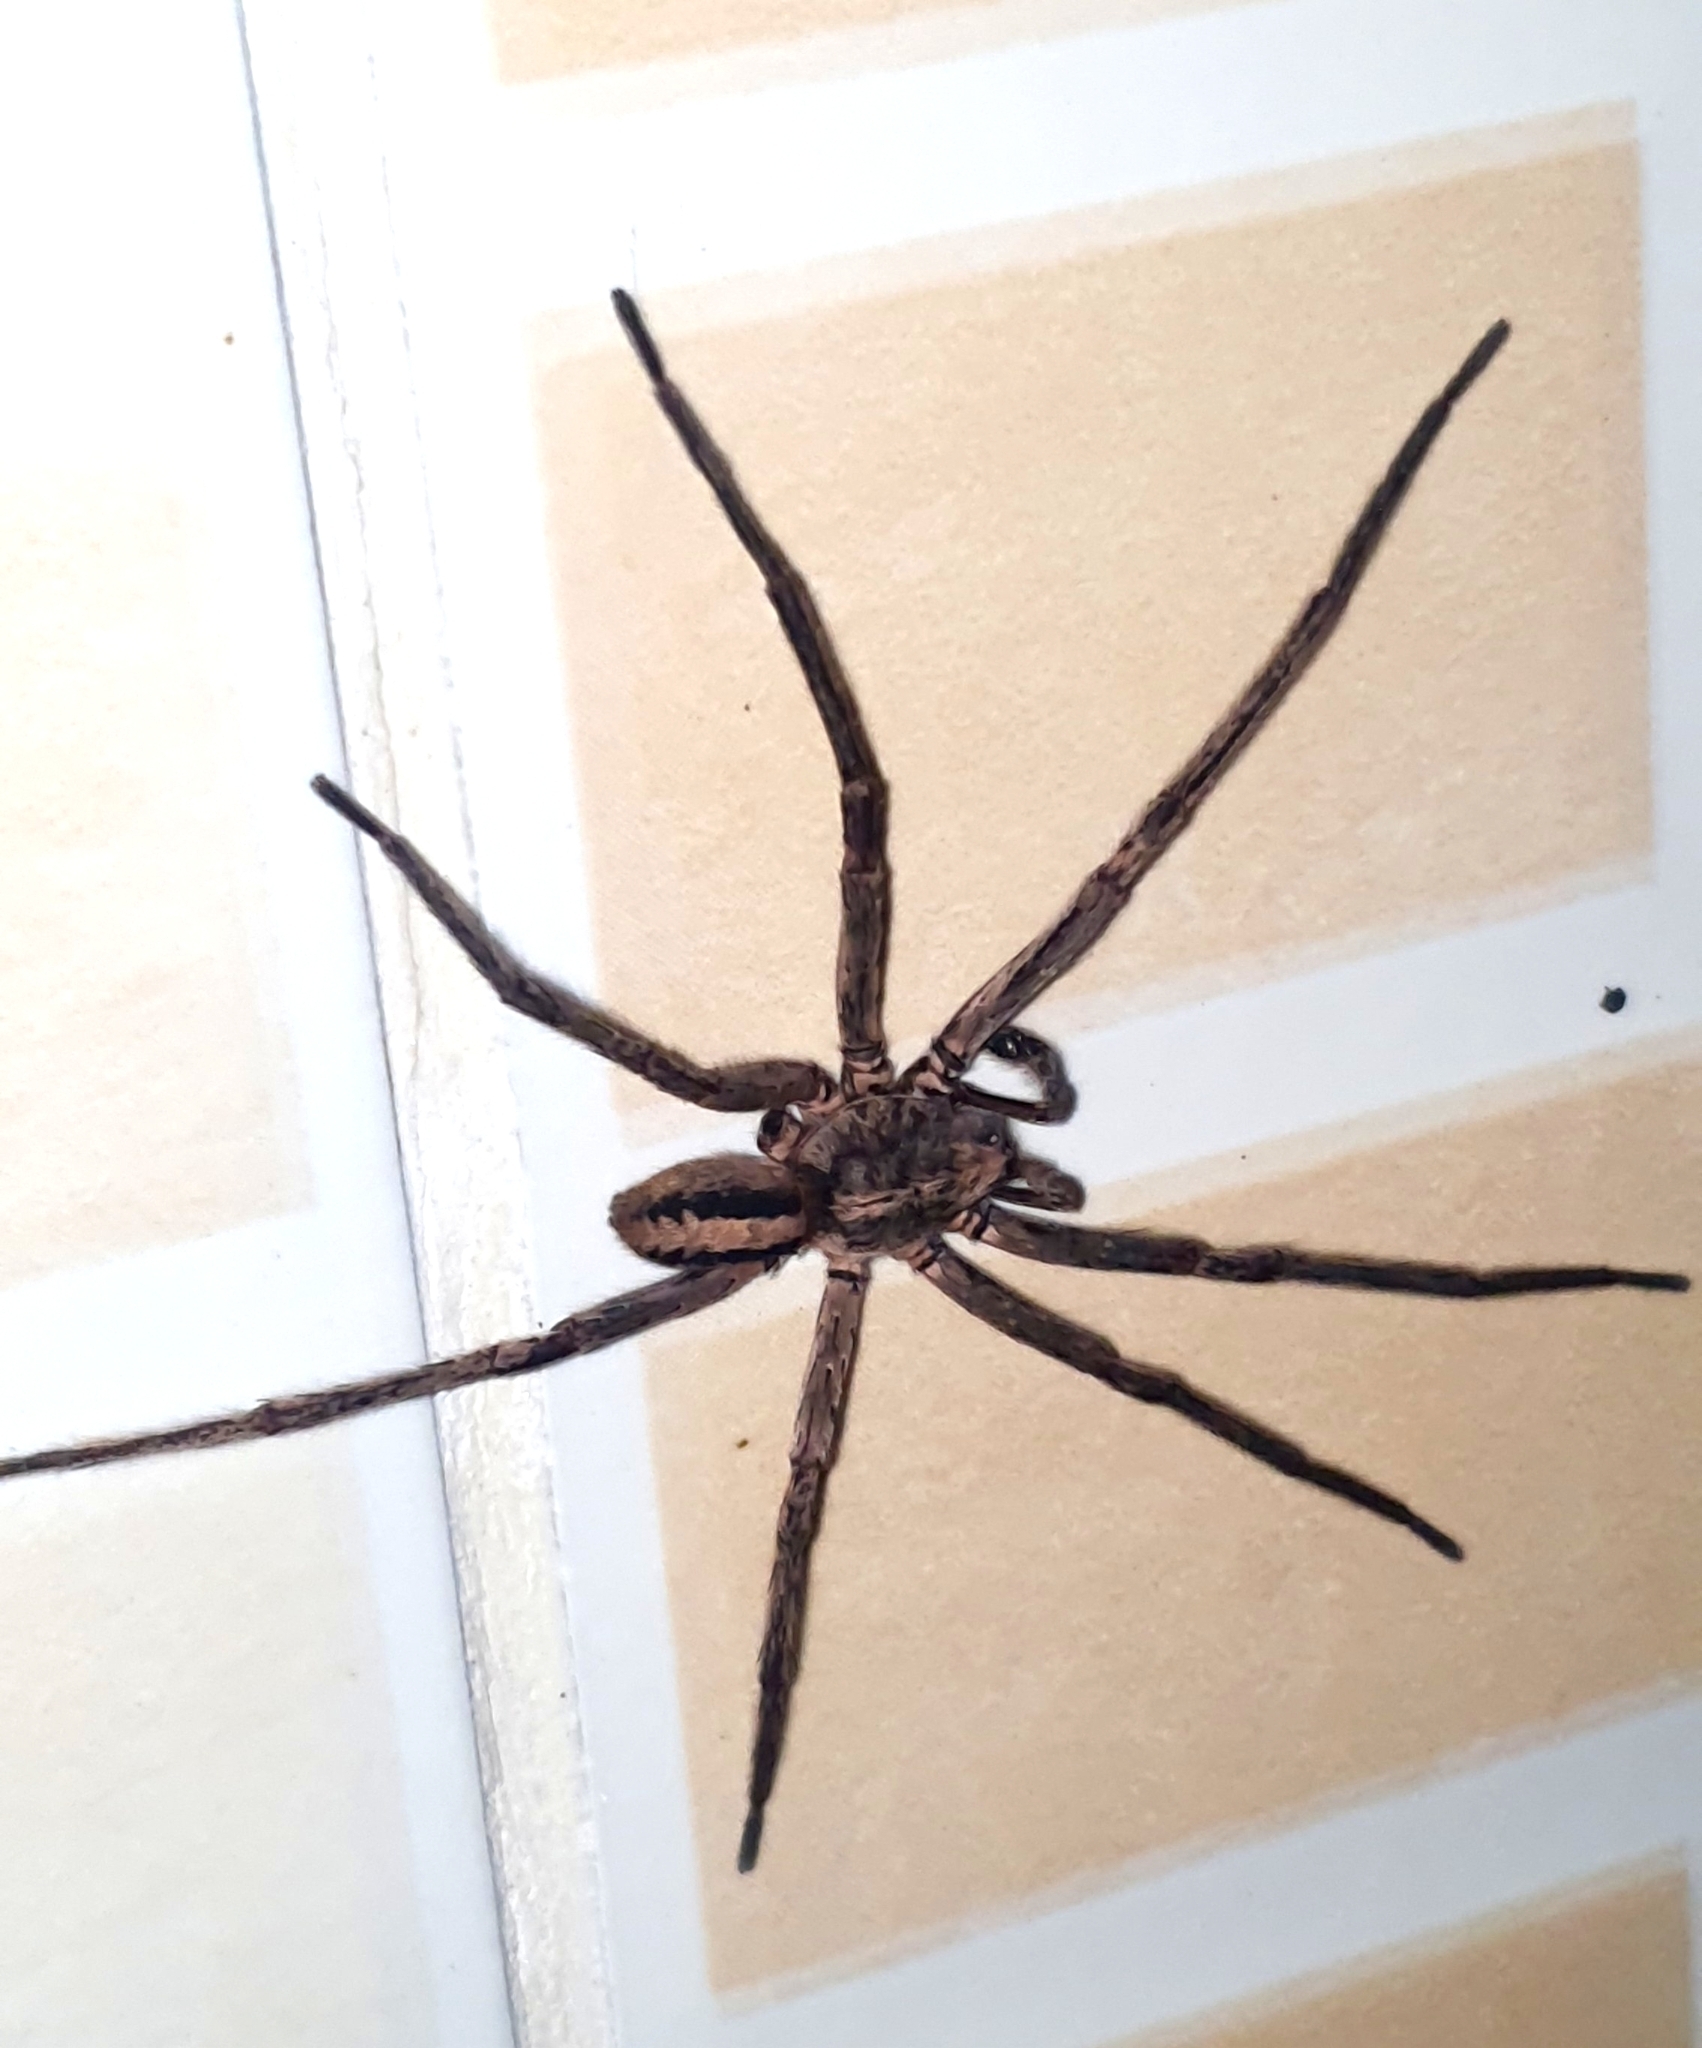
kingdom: Animalia
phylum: Arthropoda
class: Arachnida
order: Araneae
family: Ctenidae
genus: Guasuctenus
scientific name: Guasuctenus vittatissimus
